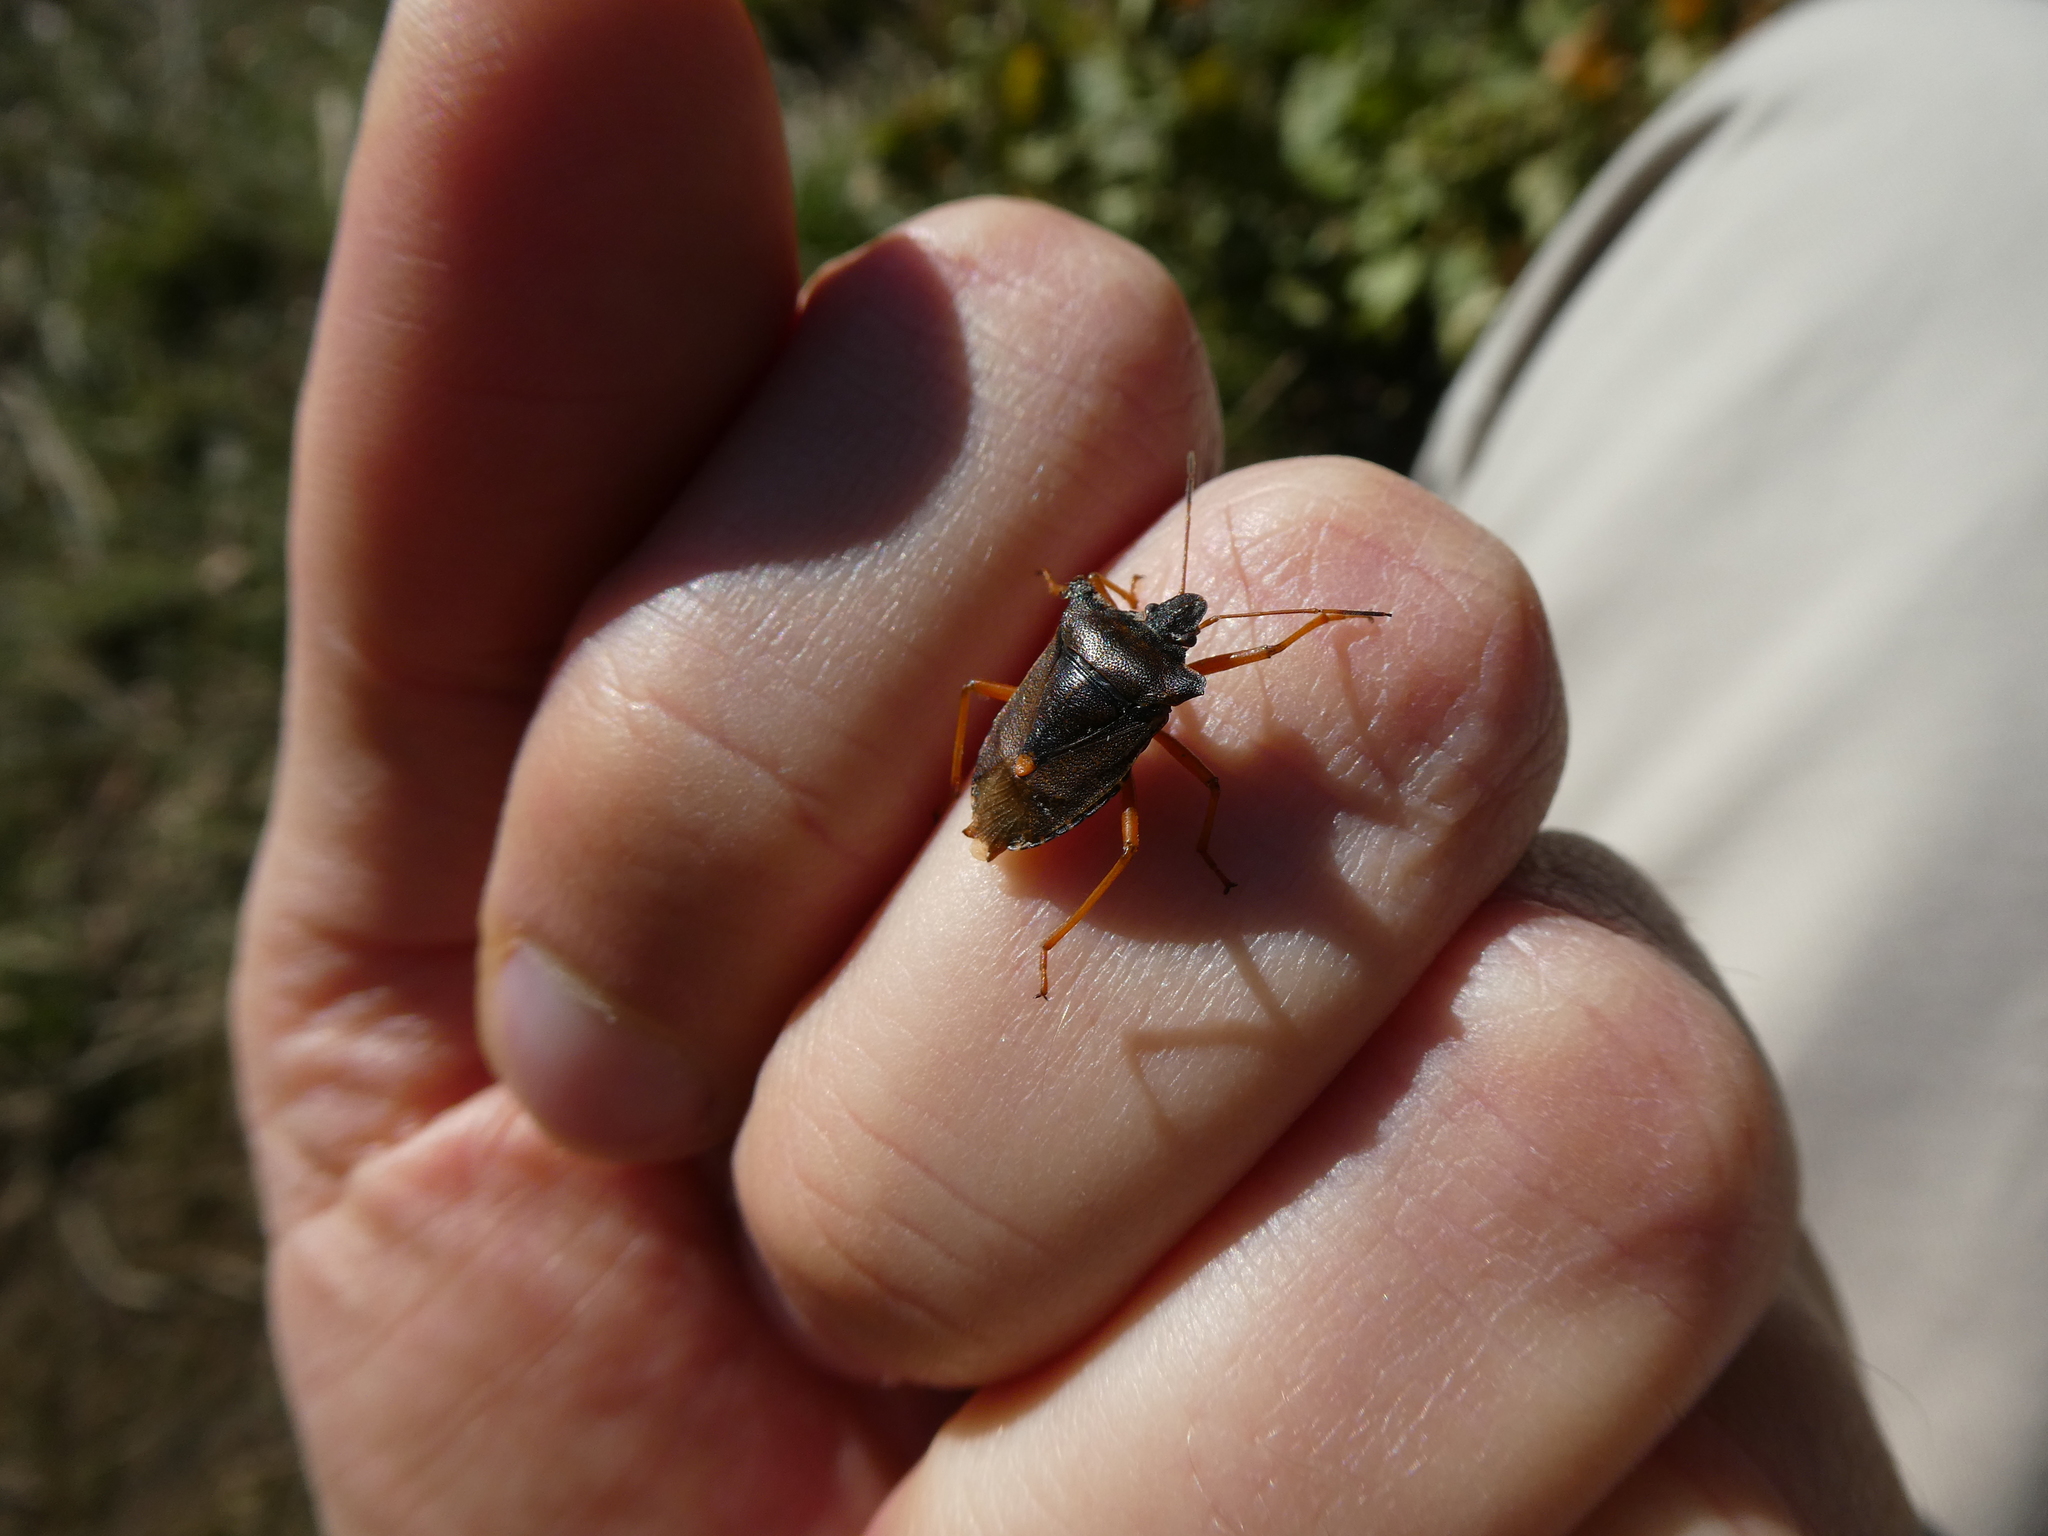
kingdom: Animalia
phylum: Arthropoda
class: Insecta
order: Hemiptera
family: Pentatomidae
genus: Pentatoma
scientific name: Pentatoma rufipes
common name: Forest bug
